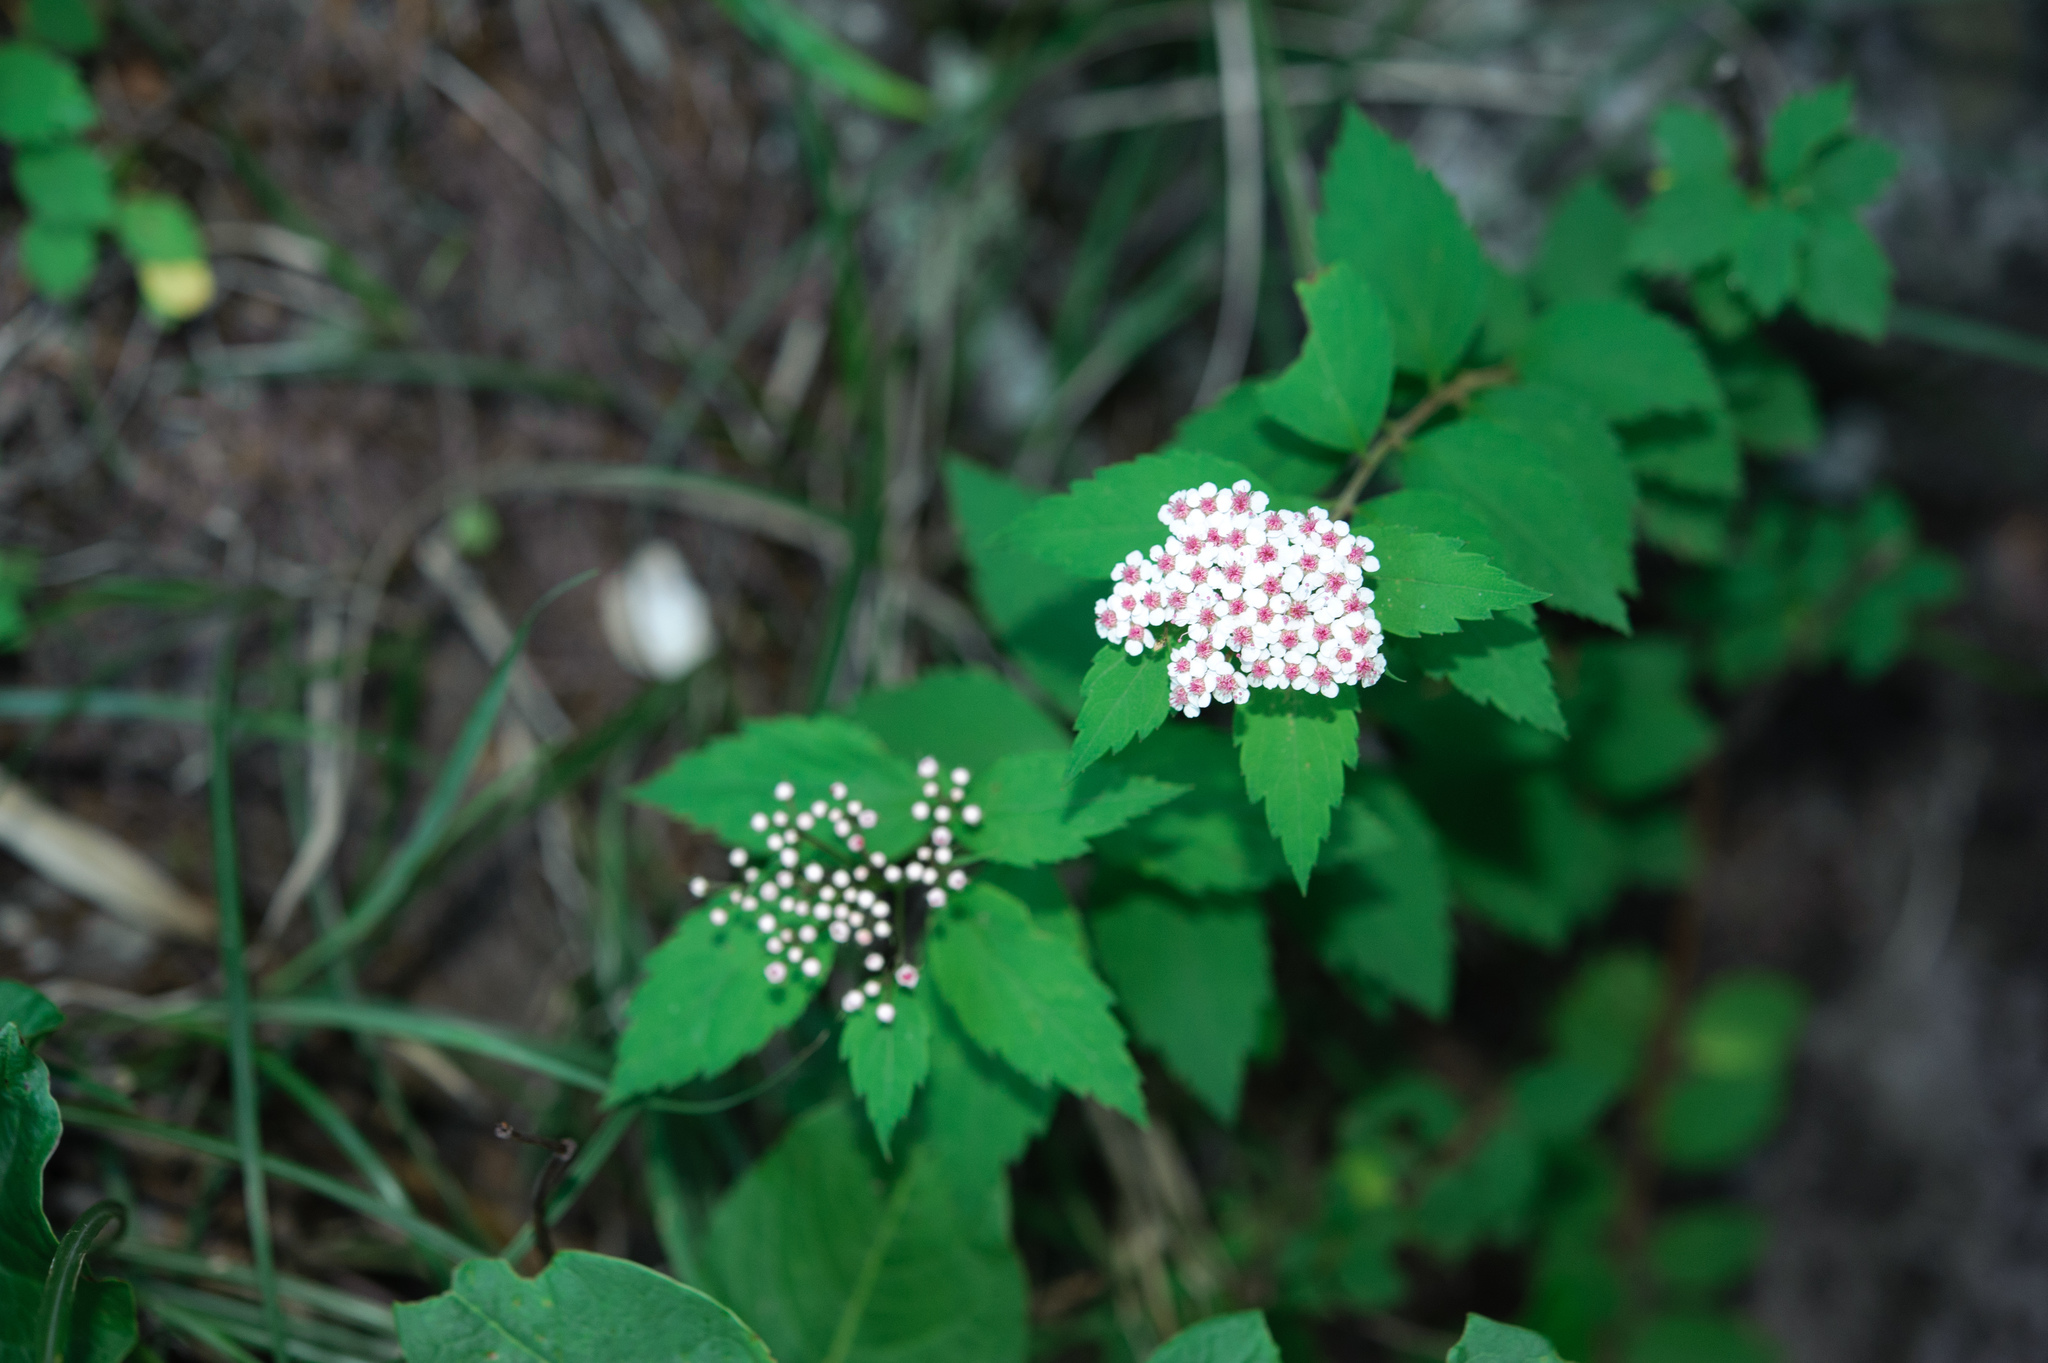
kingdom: Plantae
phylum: Tracheophyta
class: Magnoliopsida
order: Rosales
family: Rosaceae
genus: Spiraea
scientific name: Spiraea japonica
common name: Japanese spiraea
